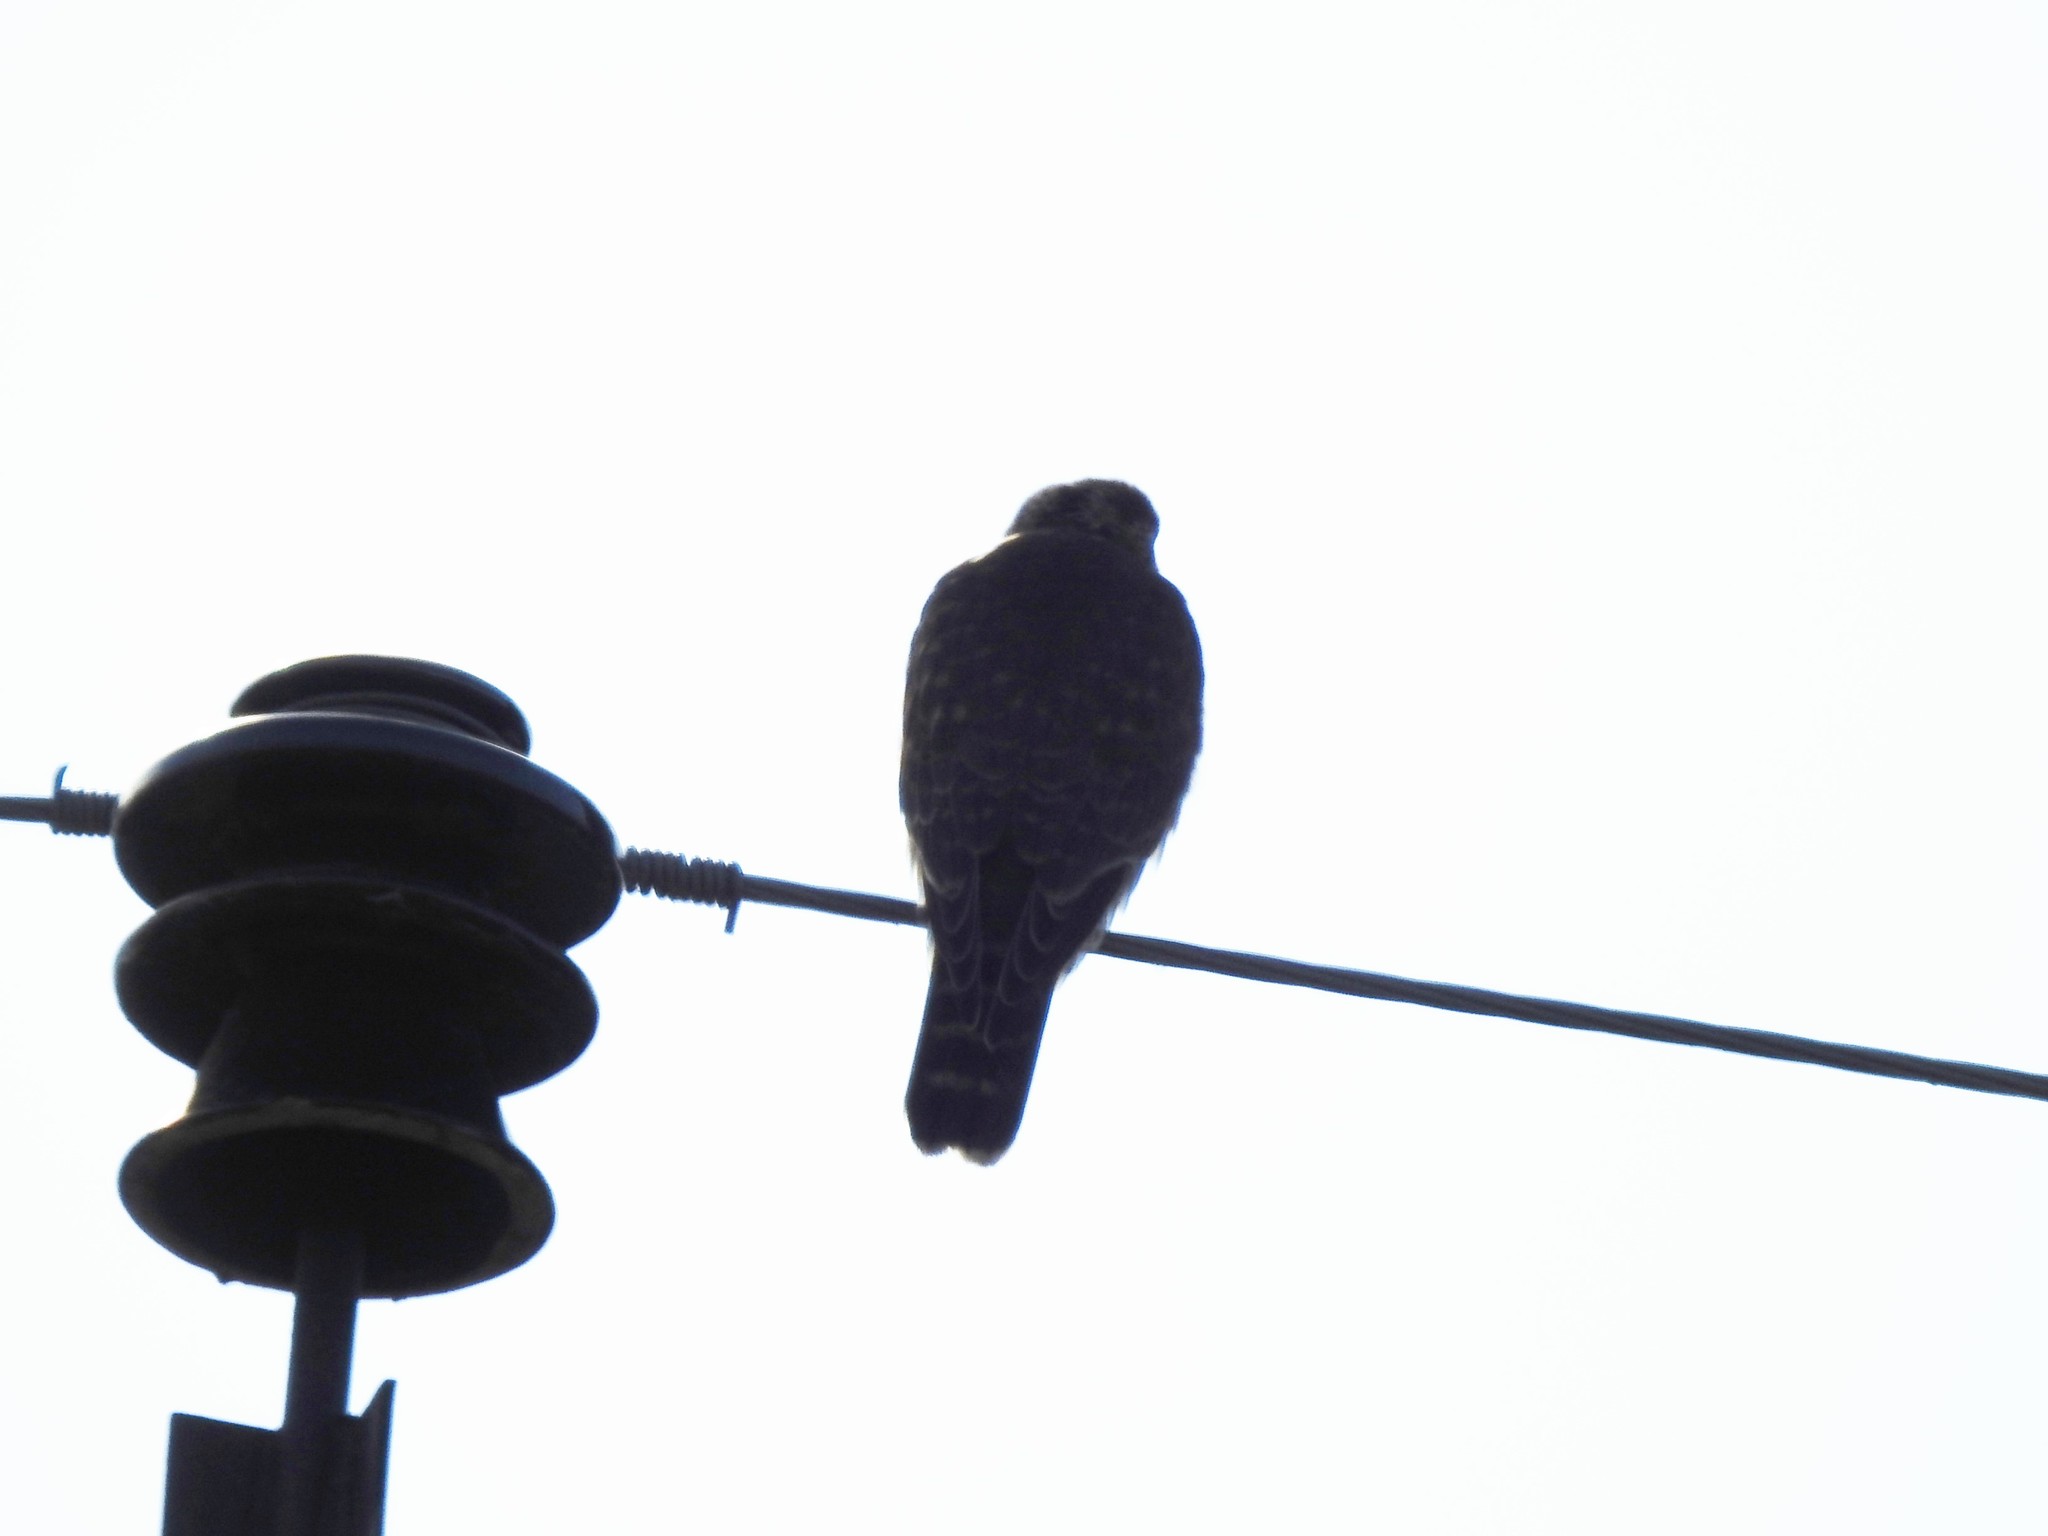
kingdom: Animalia
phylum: Chordata
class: Aves
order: Falconiformes
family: Falconidae
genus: Falco
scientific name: Falco columbarius
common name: Merlin
